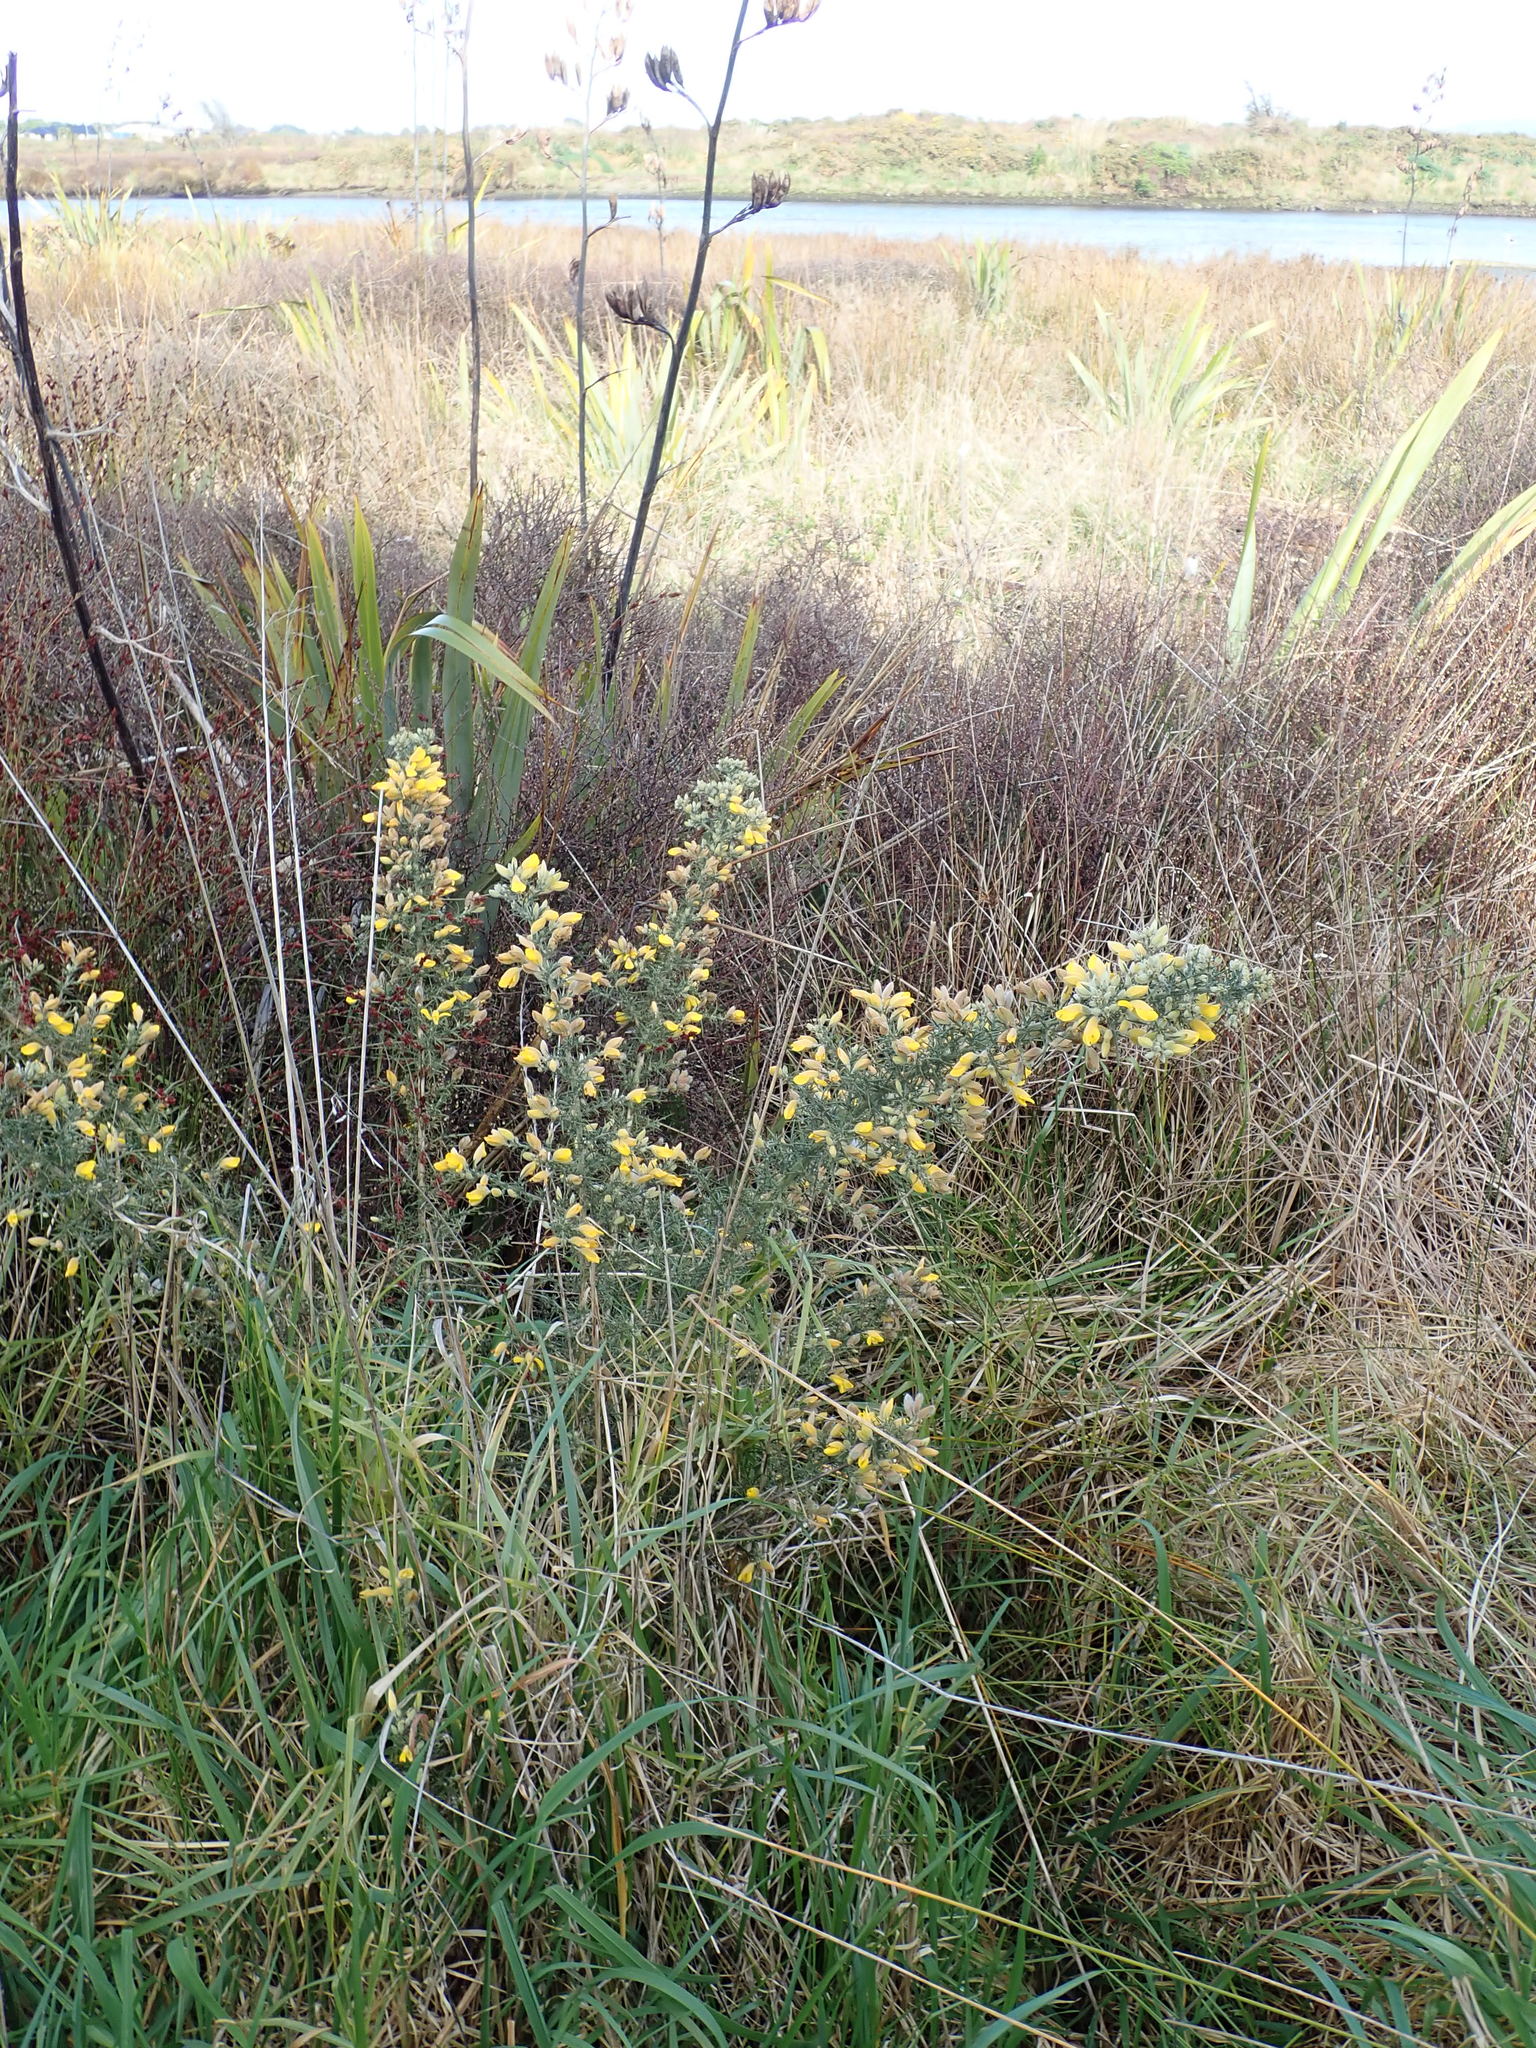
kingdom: Plantae
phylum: Tracheophyta
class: Magnoliopsida
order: Fabales
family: Fabaceae
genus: Ulex
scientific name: Ulex europaeus
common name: Common gorse
